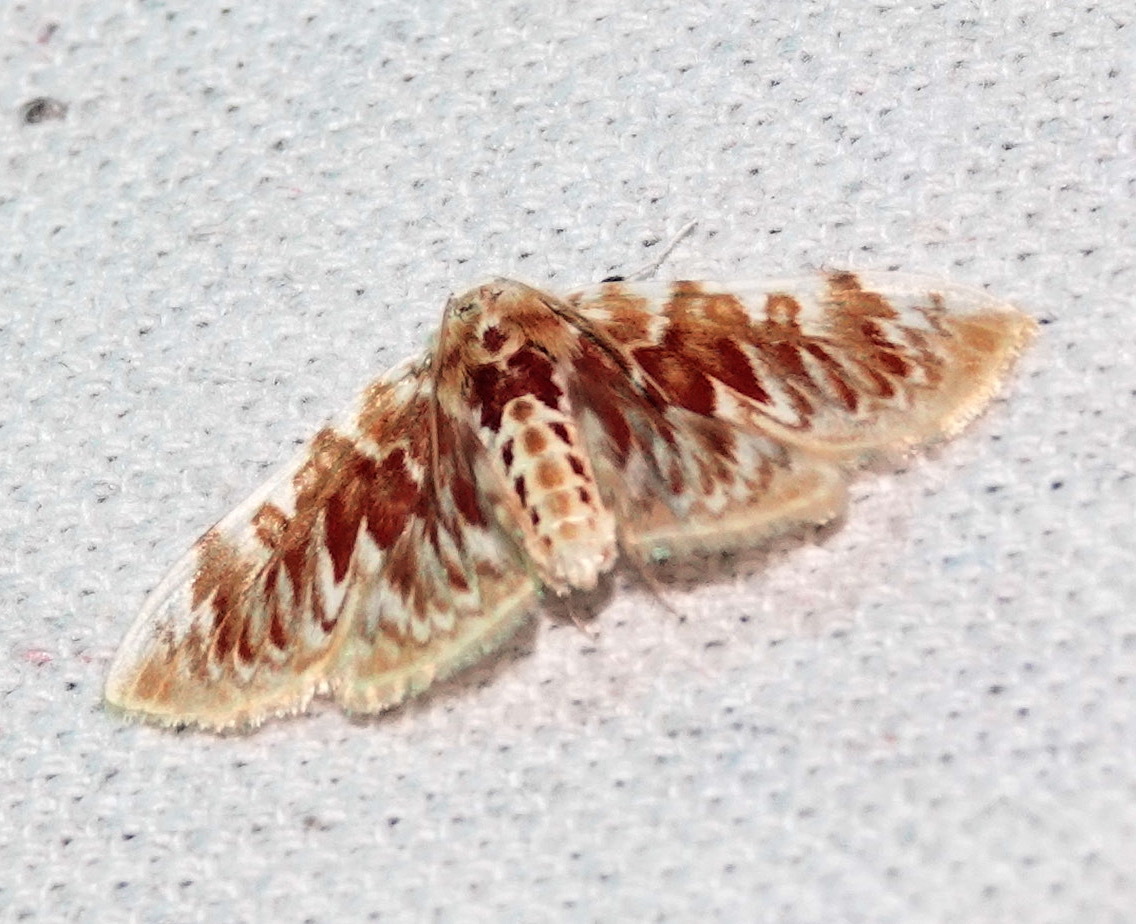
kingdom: Animalia
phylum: Arthropoda
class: Insecta
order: Lepidoptera
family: Crambidae
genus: Polygrammodes
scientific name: Polygrammodes sanguinalis
